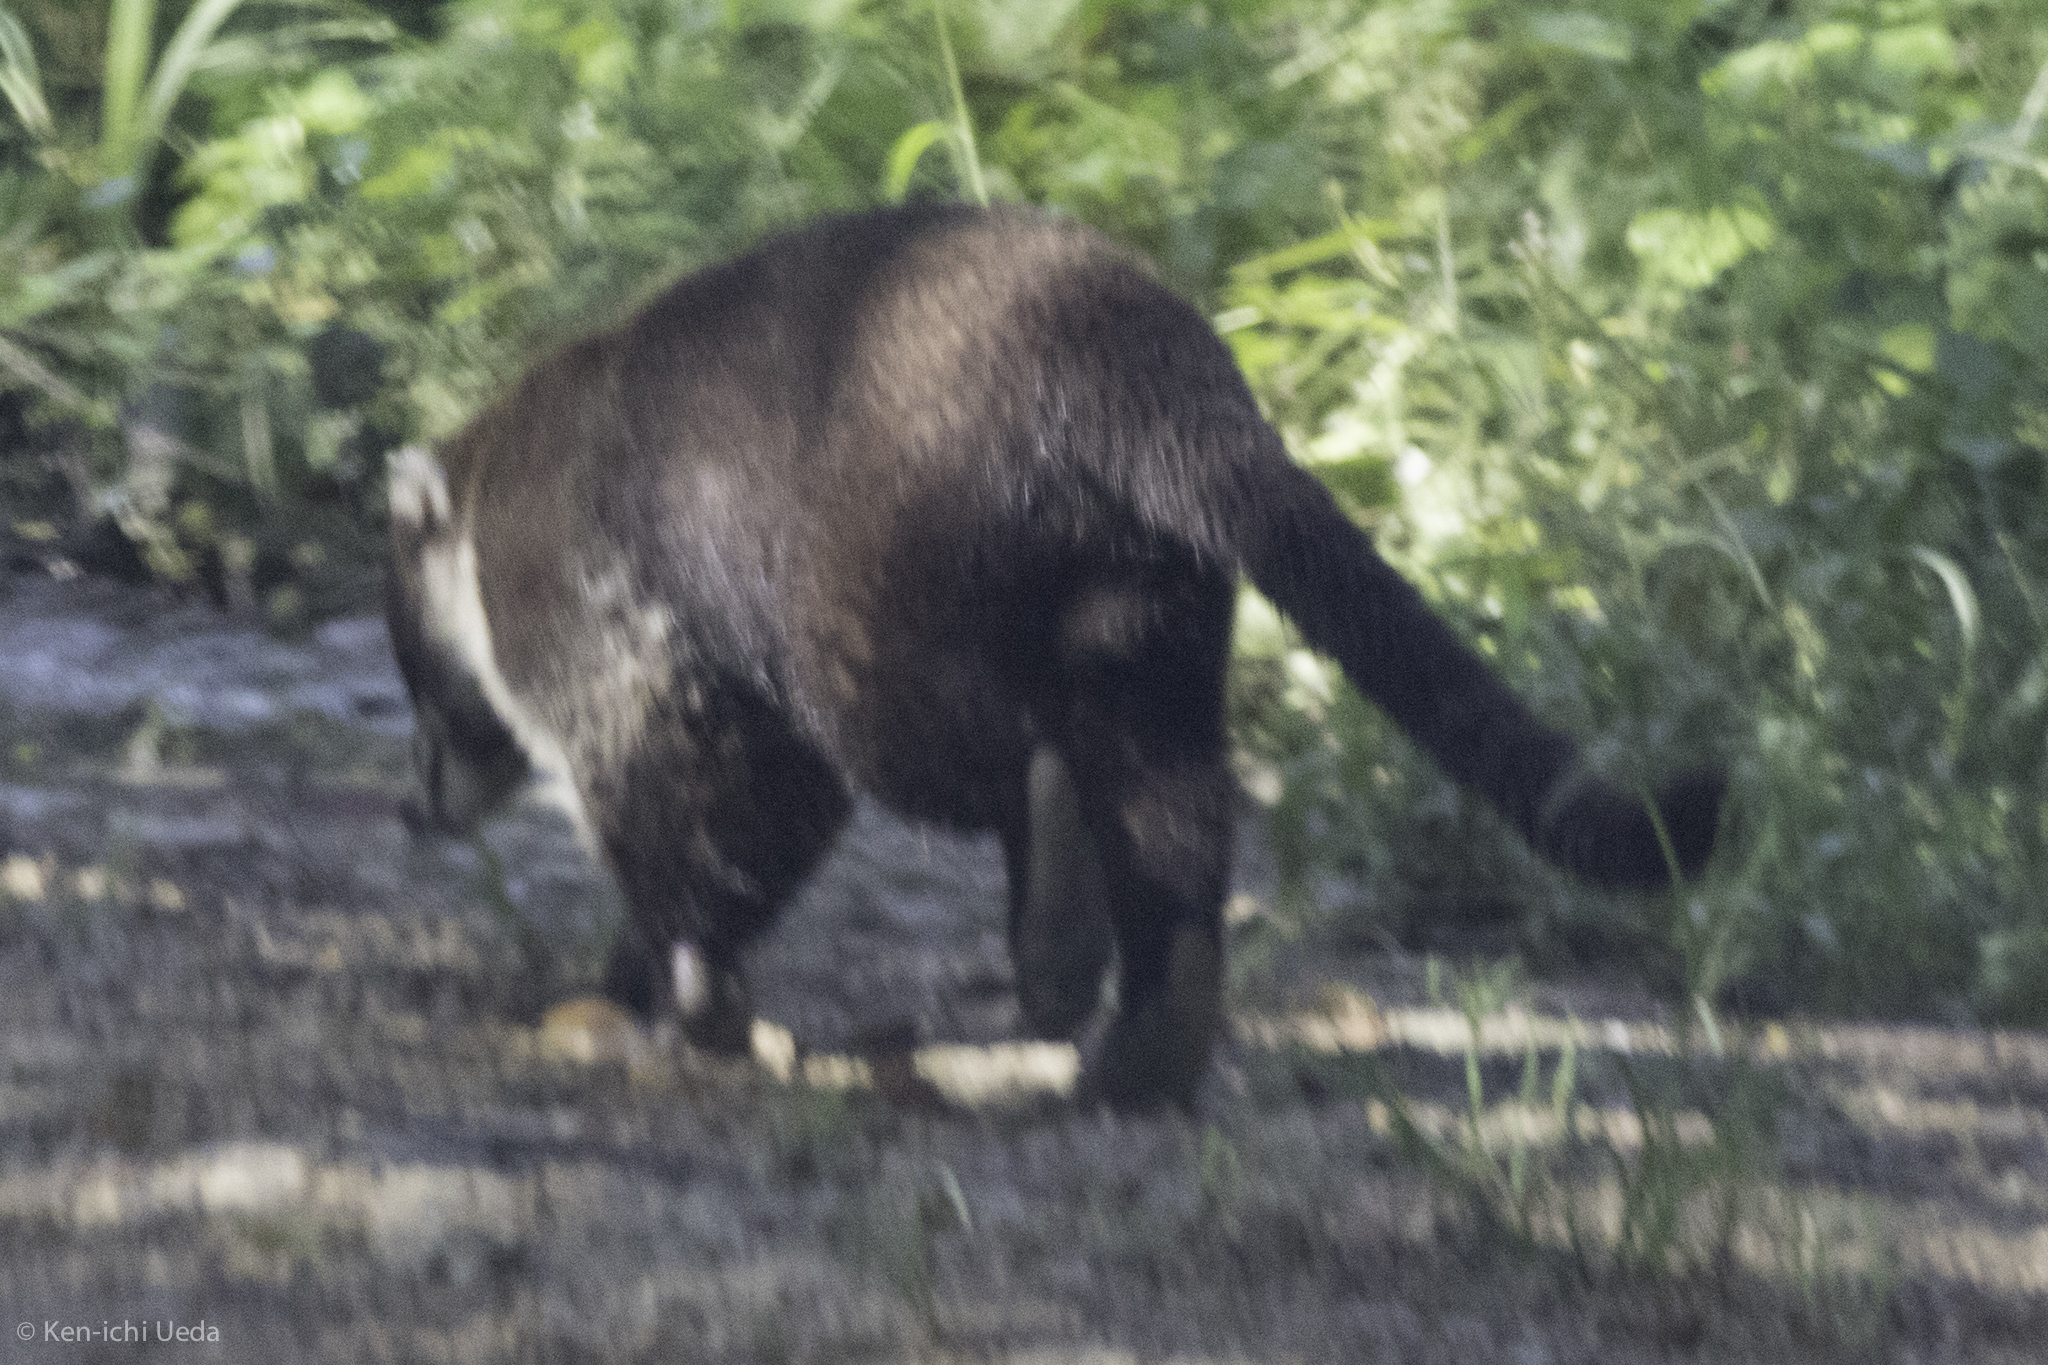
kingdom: Animalia
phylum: Chordata
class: Mammalia
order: Carnivora
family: Procyonidae
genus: Nasua
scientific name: Nasua narica
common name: White-nosed coati
